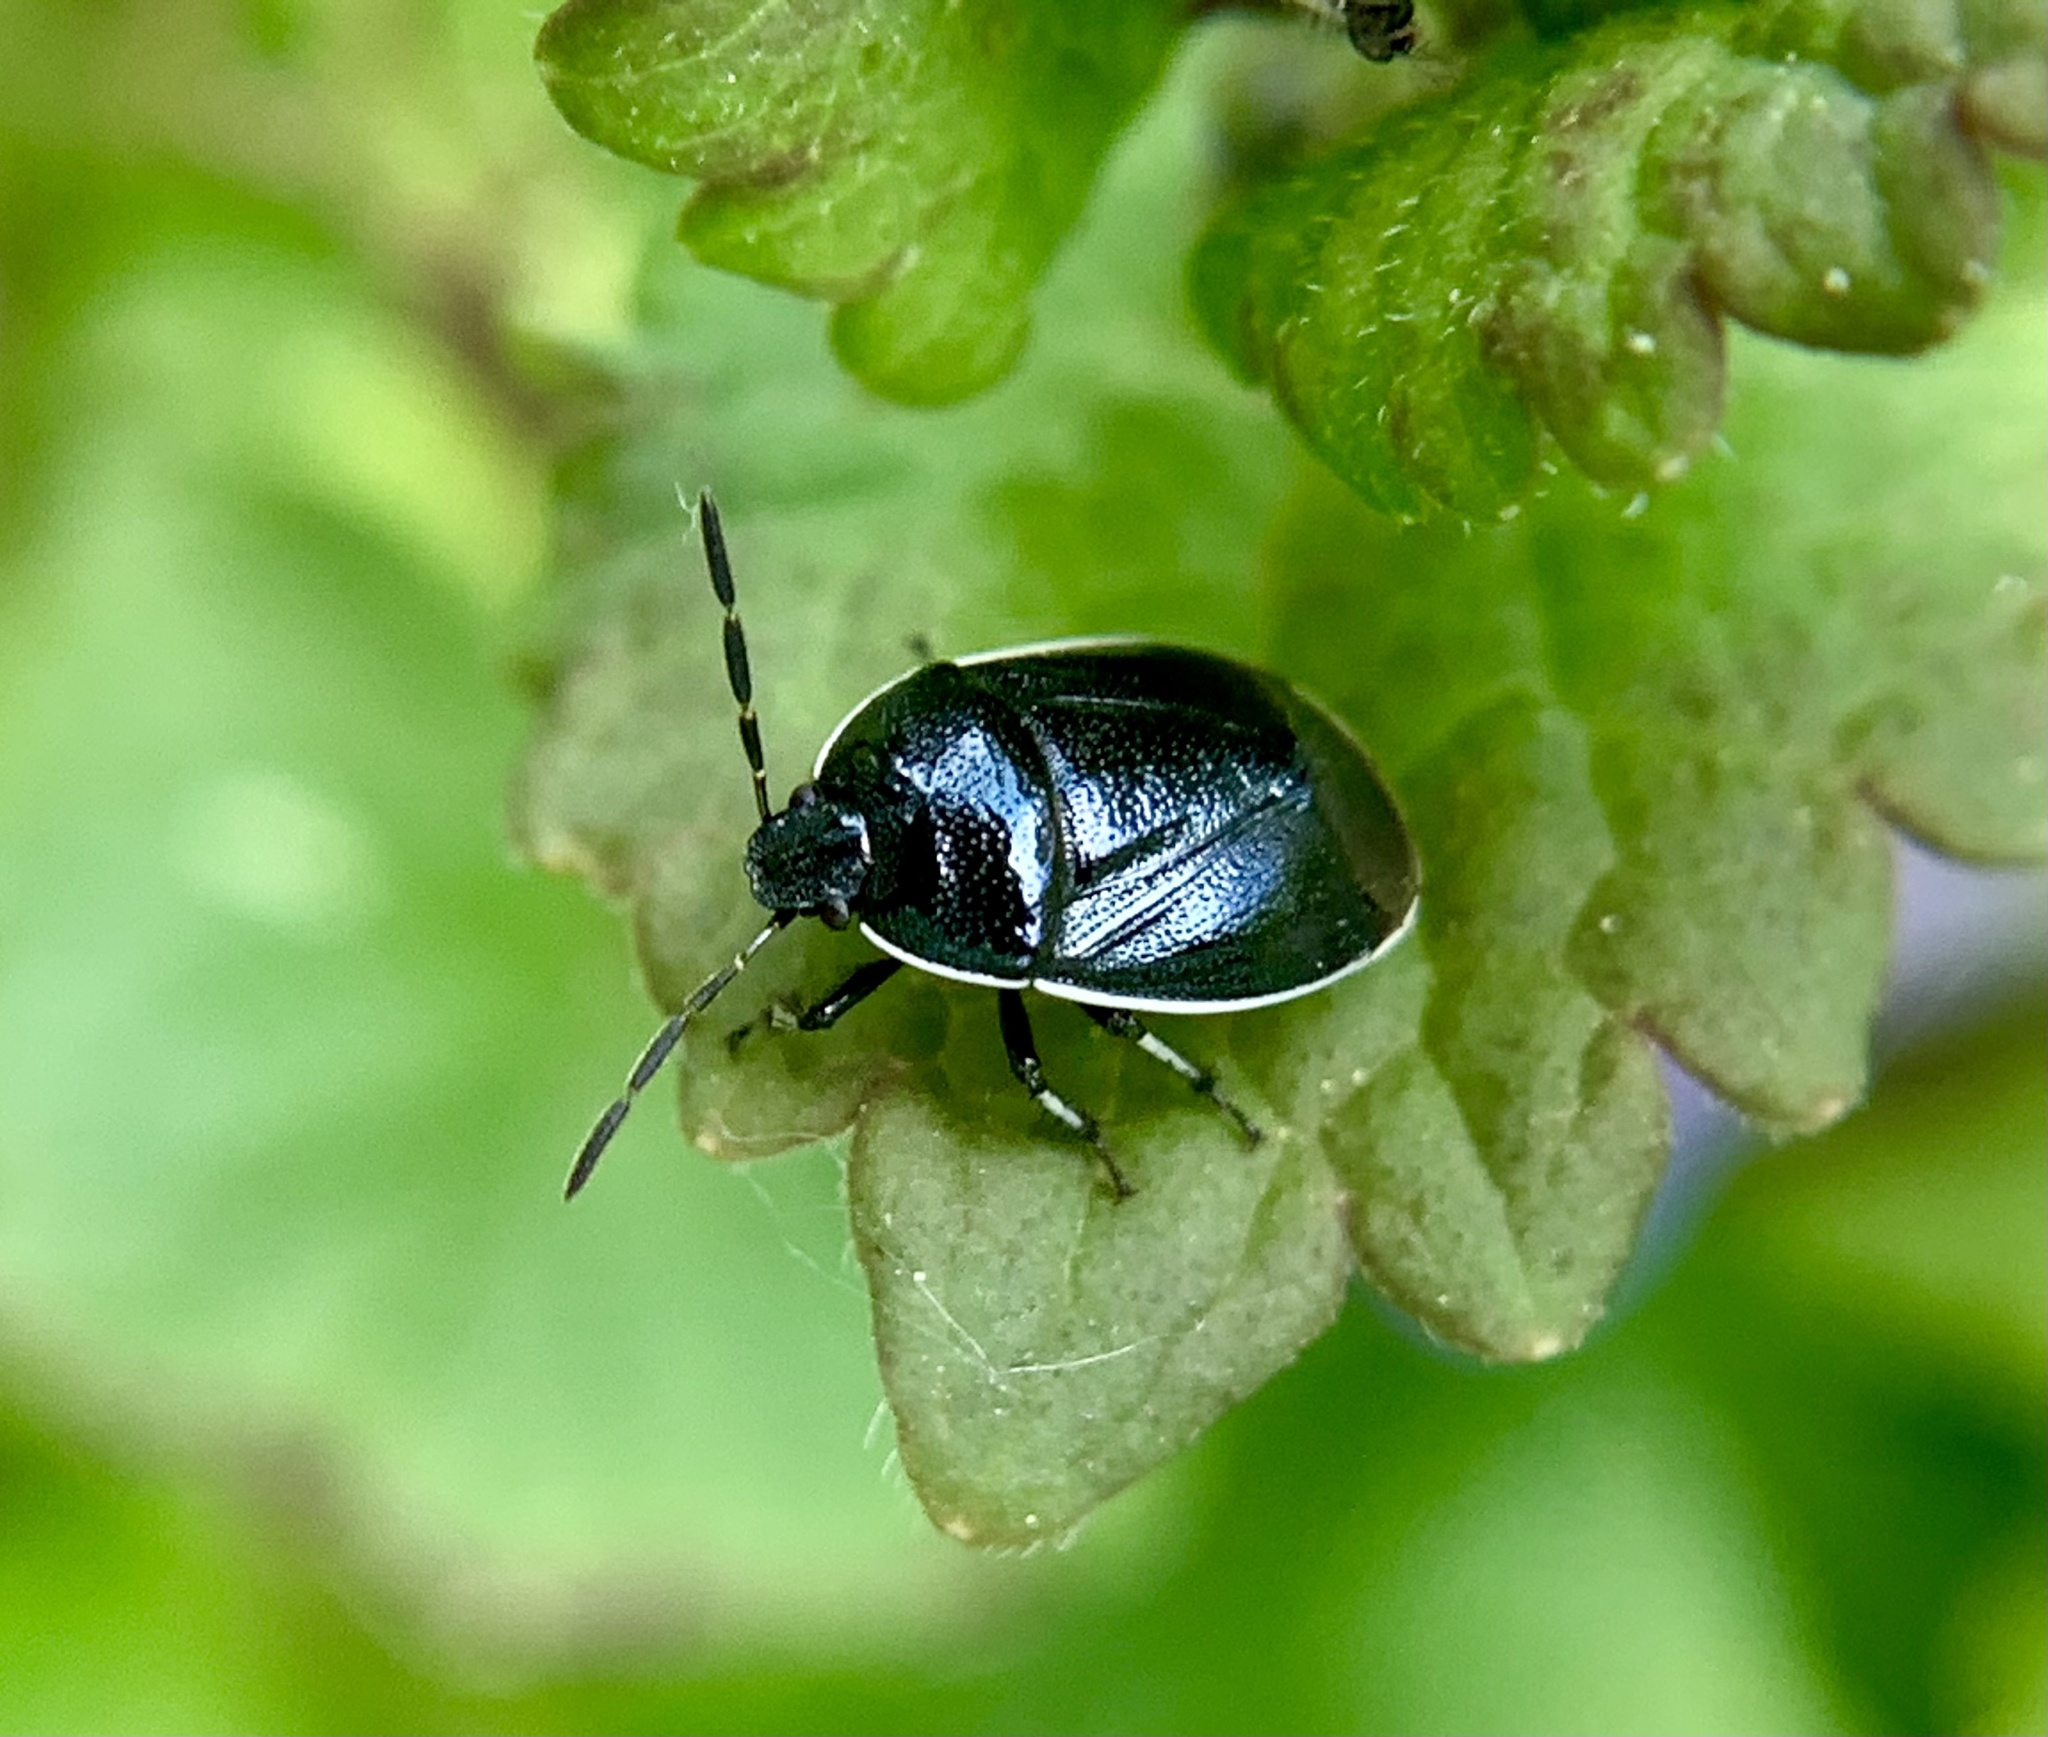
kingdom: Animalia
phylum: Arthropoda
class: Insecta
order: Hemiptera
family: Cydnidae
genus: Sehirus
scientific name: Sehirus cinctus
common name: White-margined burrower bug
